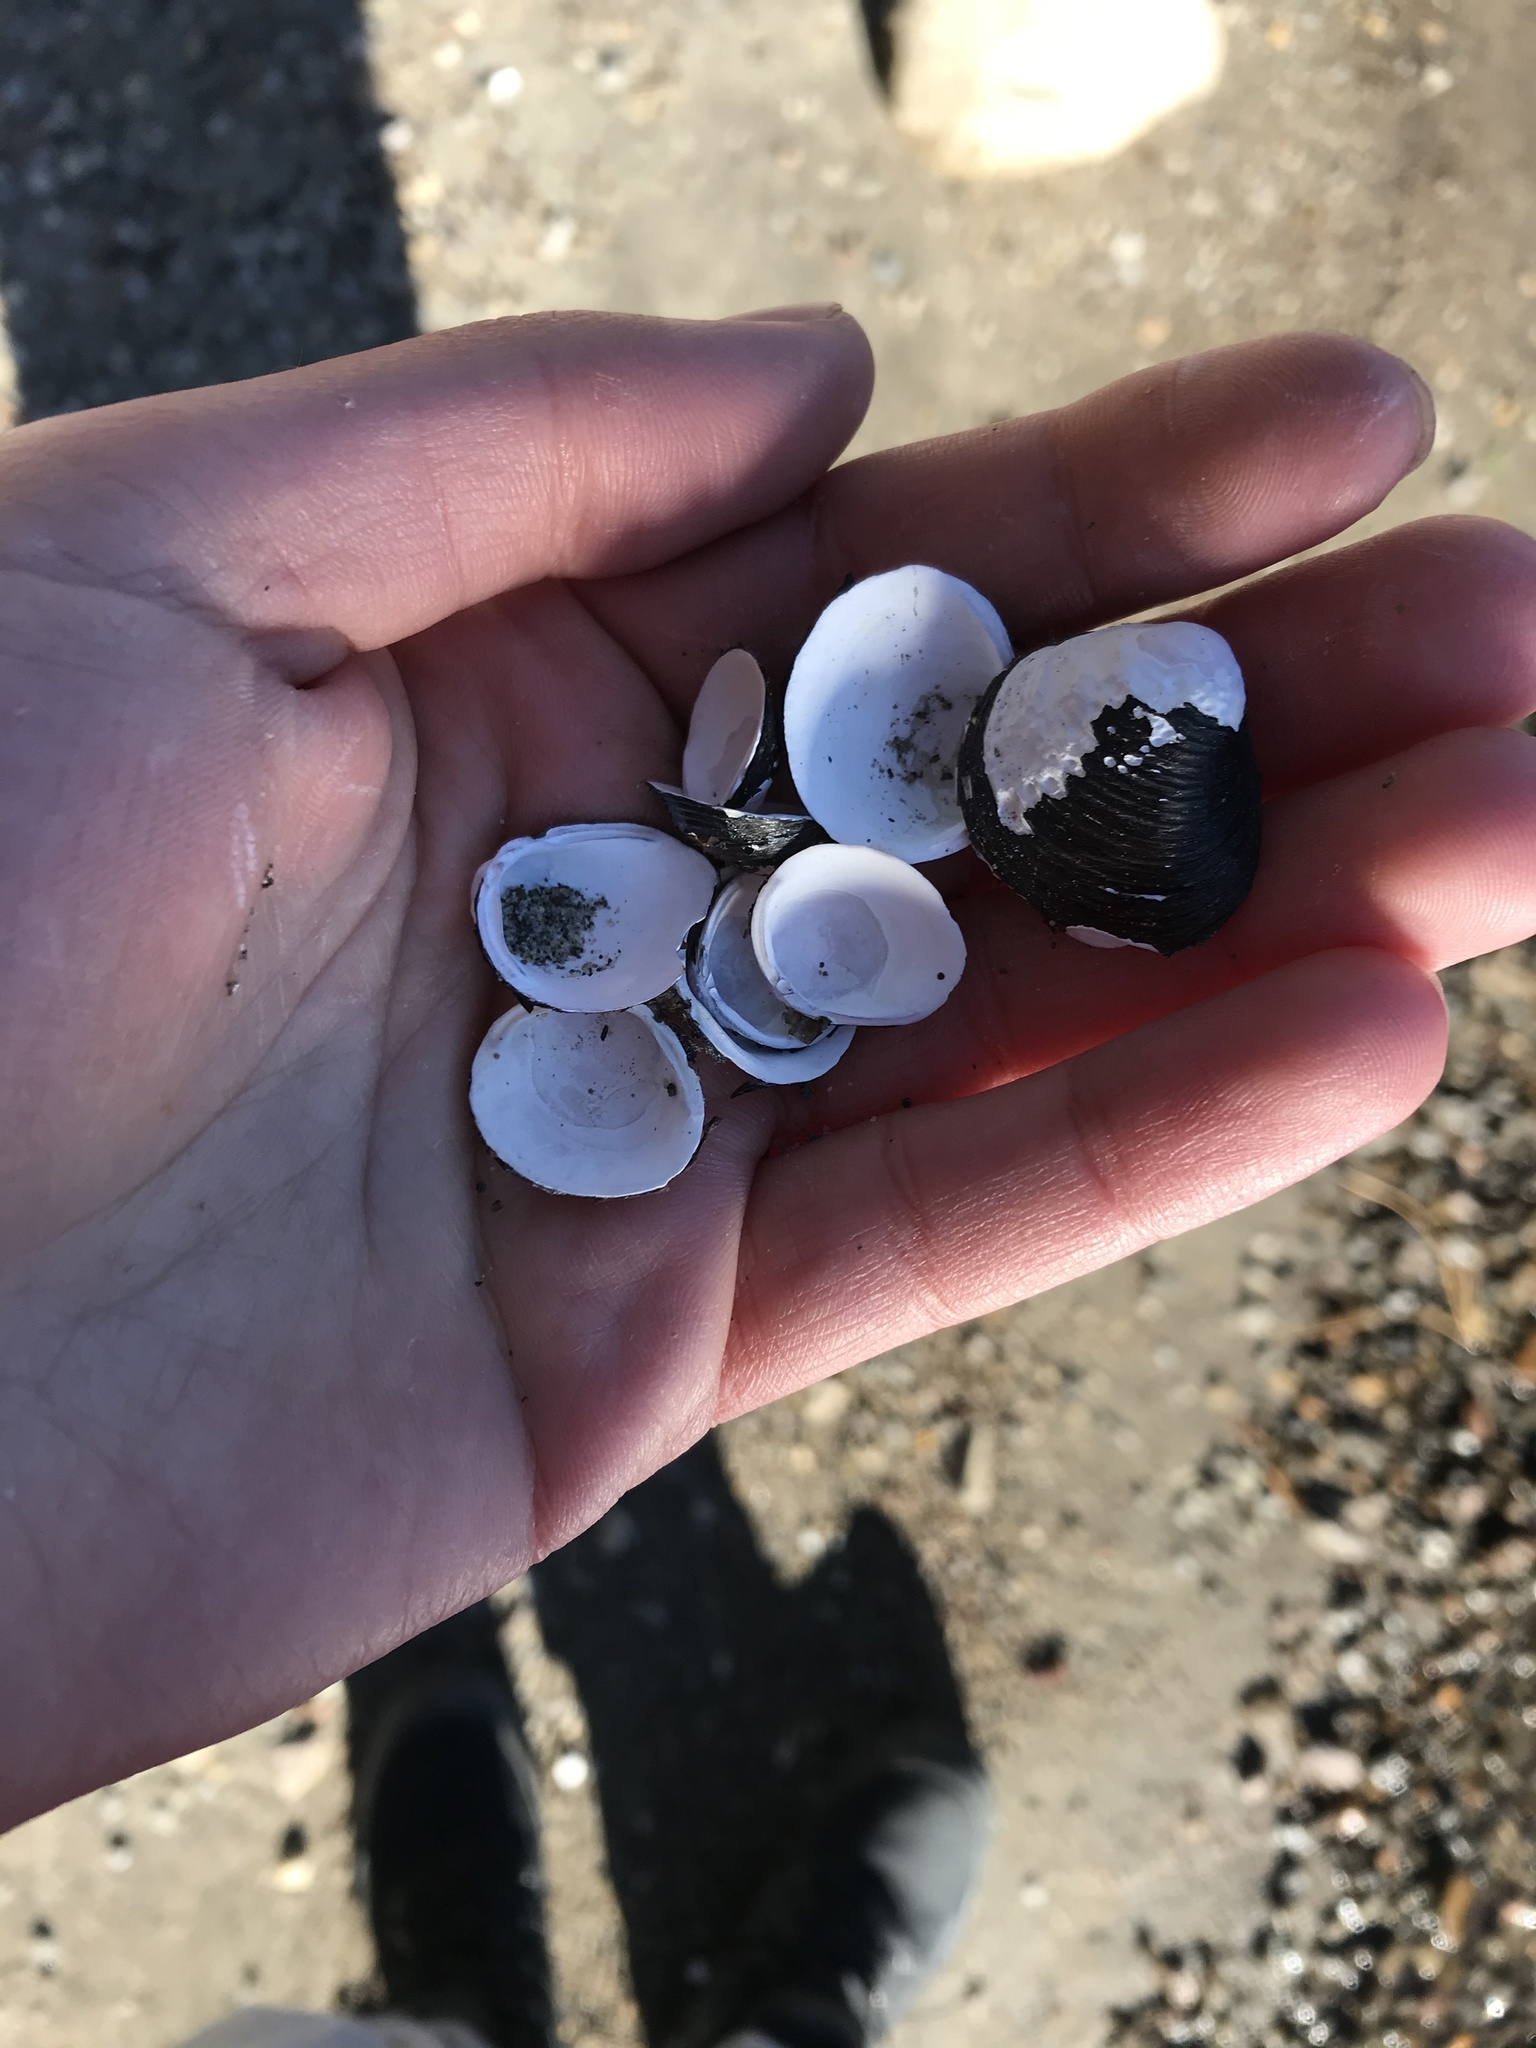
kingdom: Animalia
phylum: Mollusca
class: Bivalvia
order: Venerida
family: Cyrenidae
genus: Corbicula
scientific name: Corbicula fluminea
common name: Asian clam
